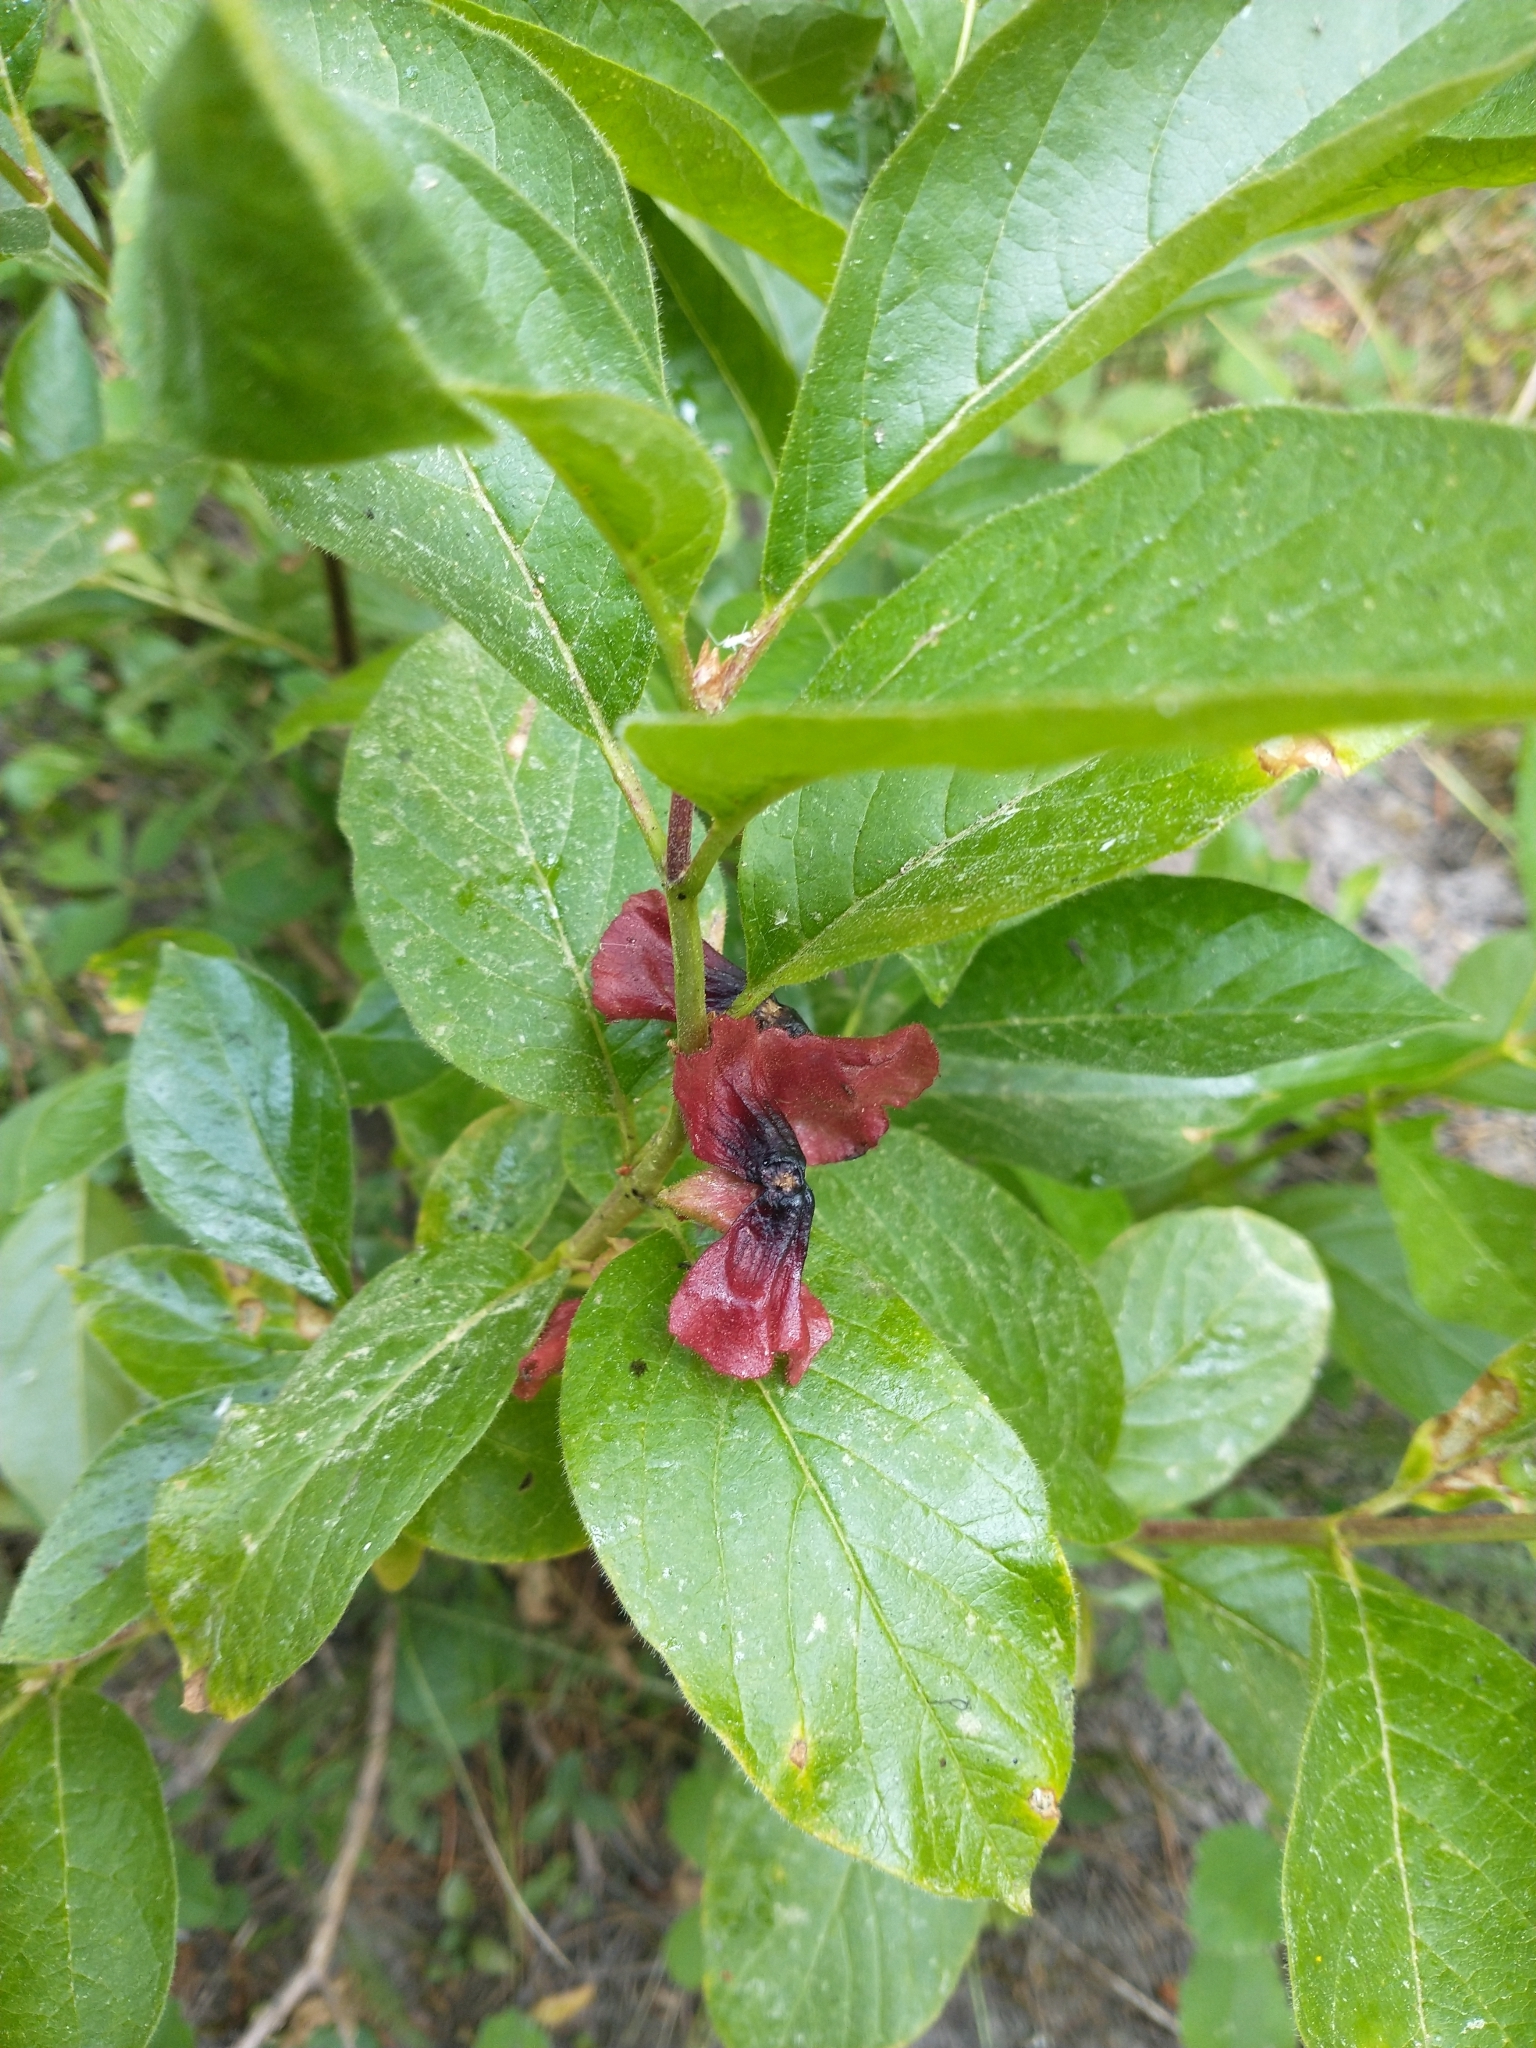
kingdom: Plantae
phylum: Tracheophyta
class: Magnoliopsida
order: Dipsacales
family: Caprifoliaceae
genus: Lonicera
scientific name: Lonicera involucrata
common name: Californian honeysuckle
